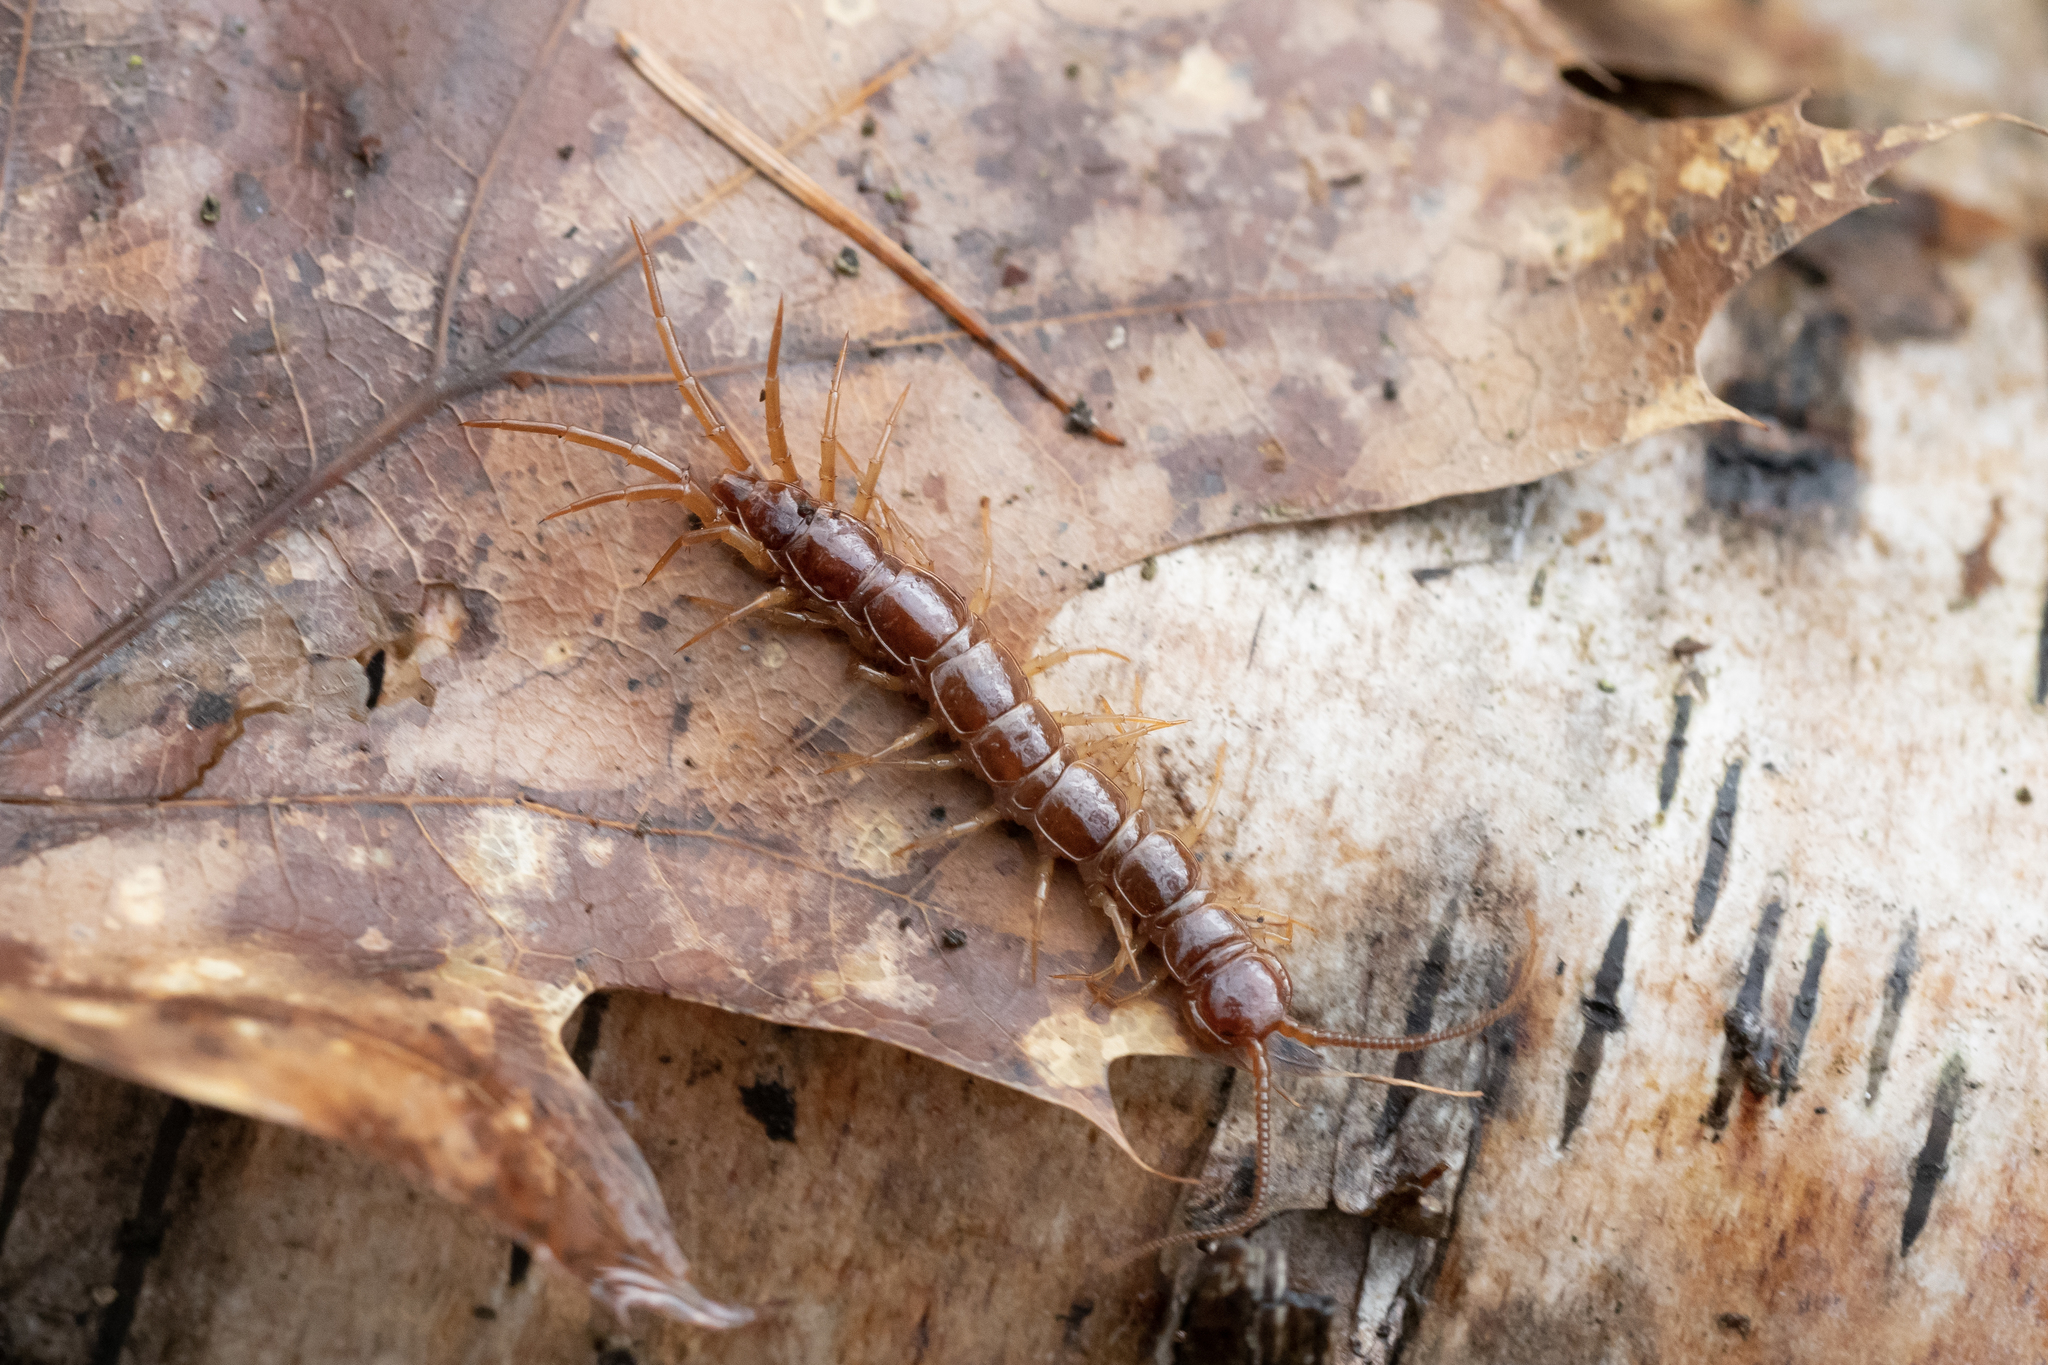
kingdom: Animalia
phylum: Arthropoda
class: Chilopoda
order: Lithobiomorpha
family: Lithobiidae
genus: Lithobius
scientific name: Lithobius forficatus
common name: Centipede
